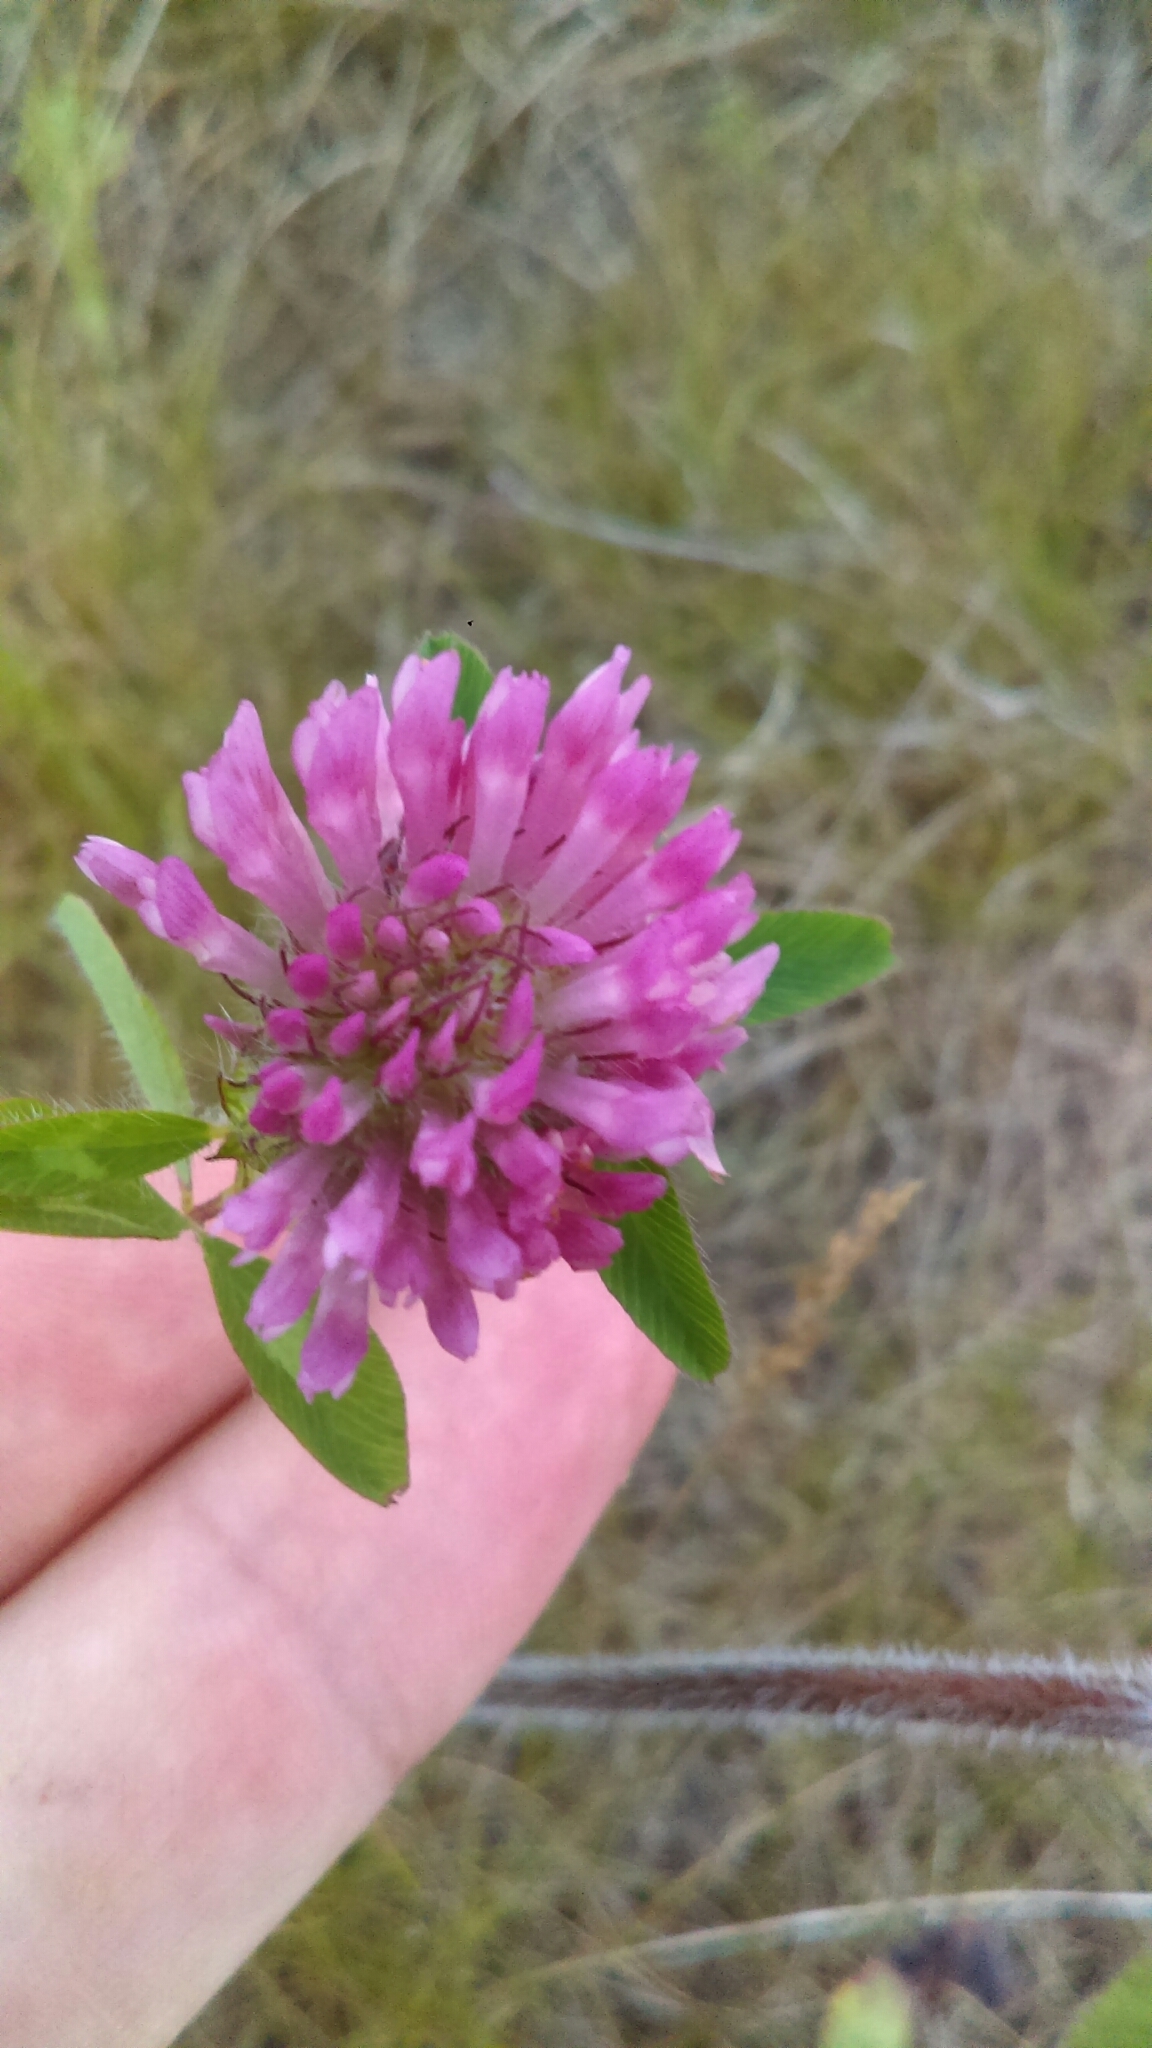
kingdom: Plantae
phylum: Tracheophyta
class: Magnoliopsida
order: Fabales
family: Fabaceae
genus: Trifolium
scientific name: Trifolium pratense
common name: Red clover
